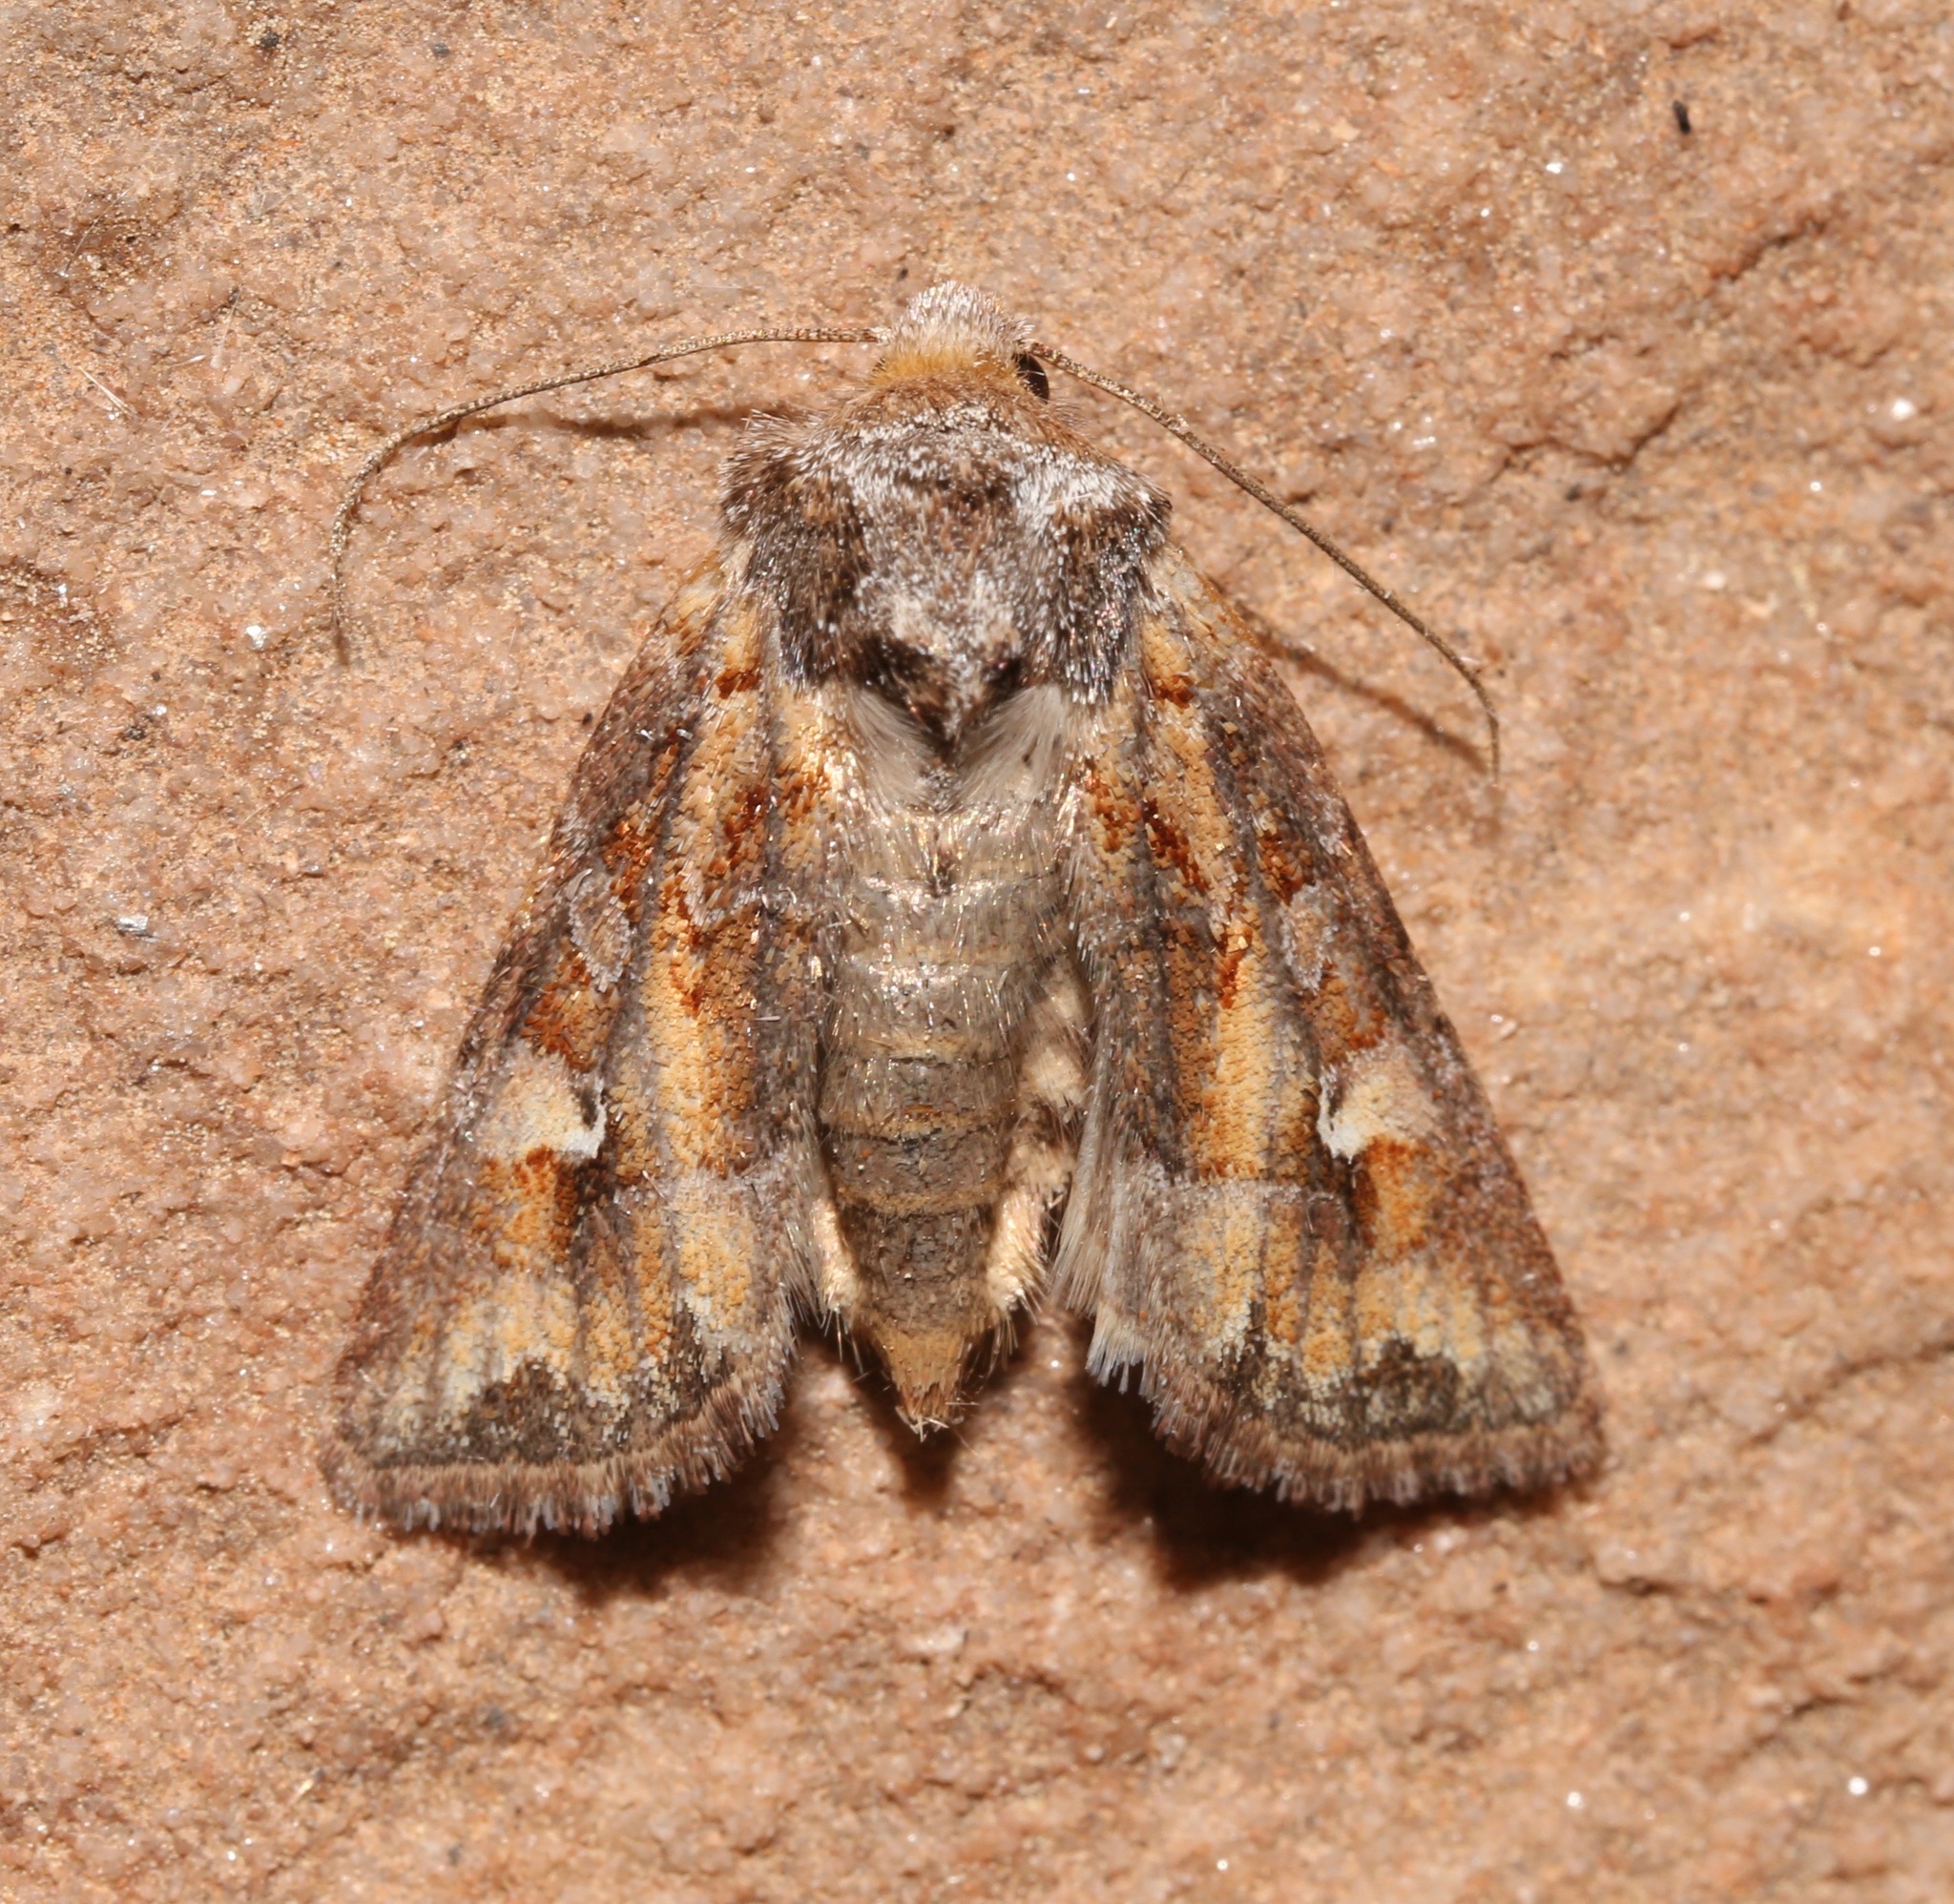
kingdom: Animalia
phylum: Arthropoda
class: Insecta
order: Lepidoptera
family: Noctuidae
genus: Lacinipolia
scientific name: Lacinipolia lepidula
